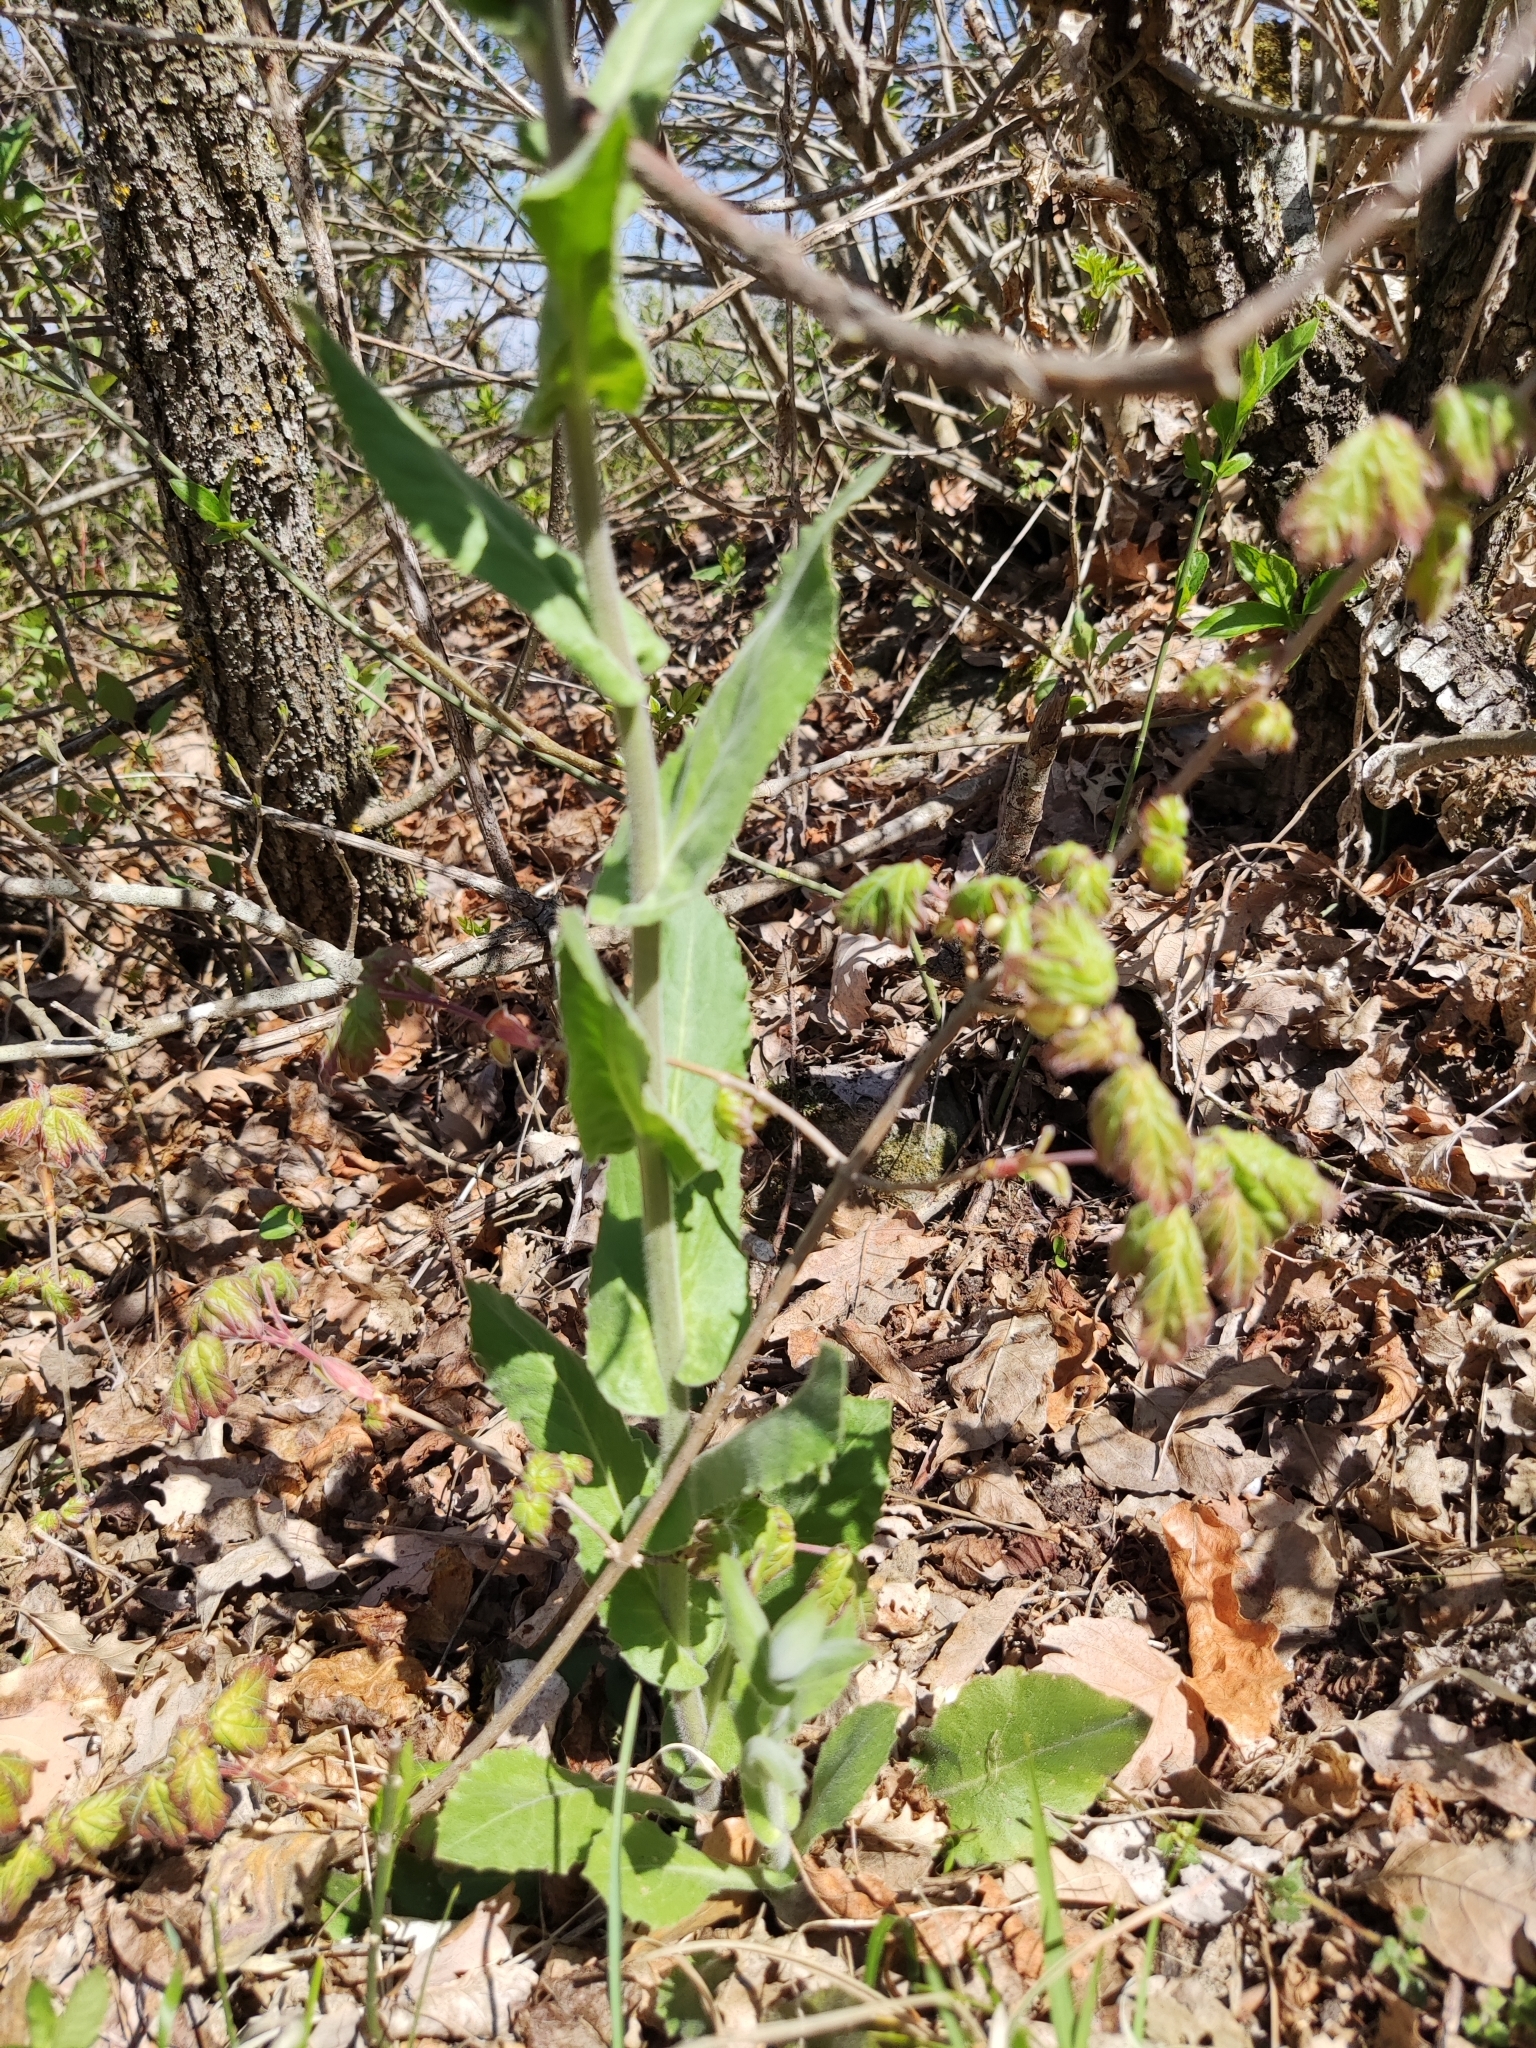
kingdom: Plantae
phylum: Tracheophyta
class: Magnoliopsida
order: Brassicales
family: Brassicaceae
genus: Pseudoturritis
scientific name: Pseudoturritis turrita
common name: Tower cress
